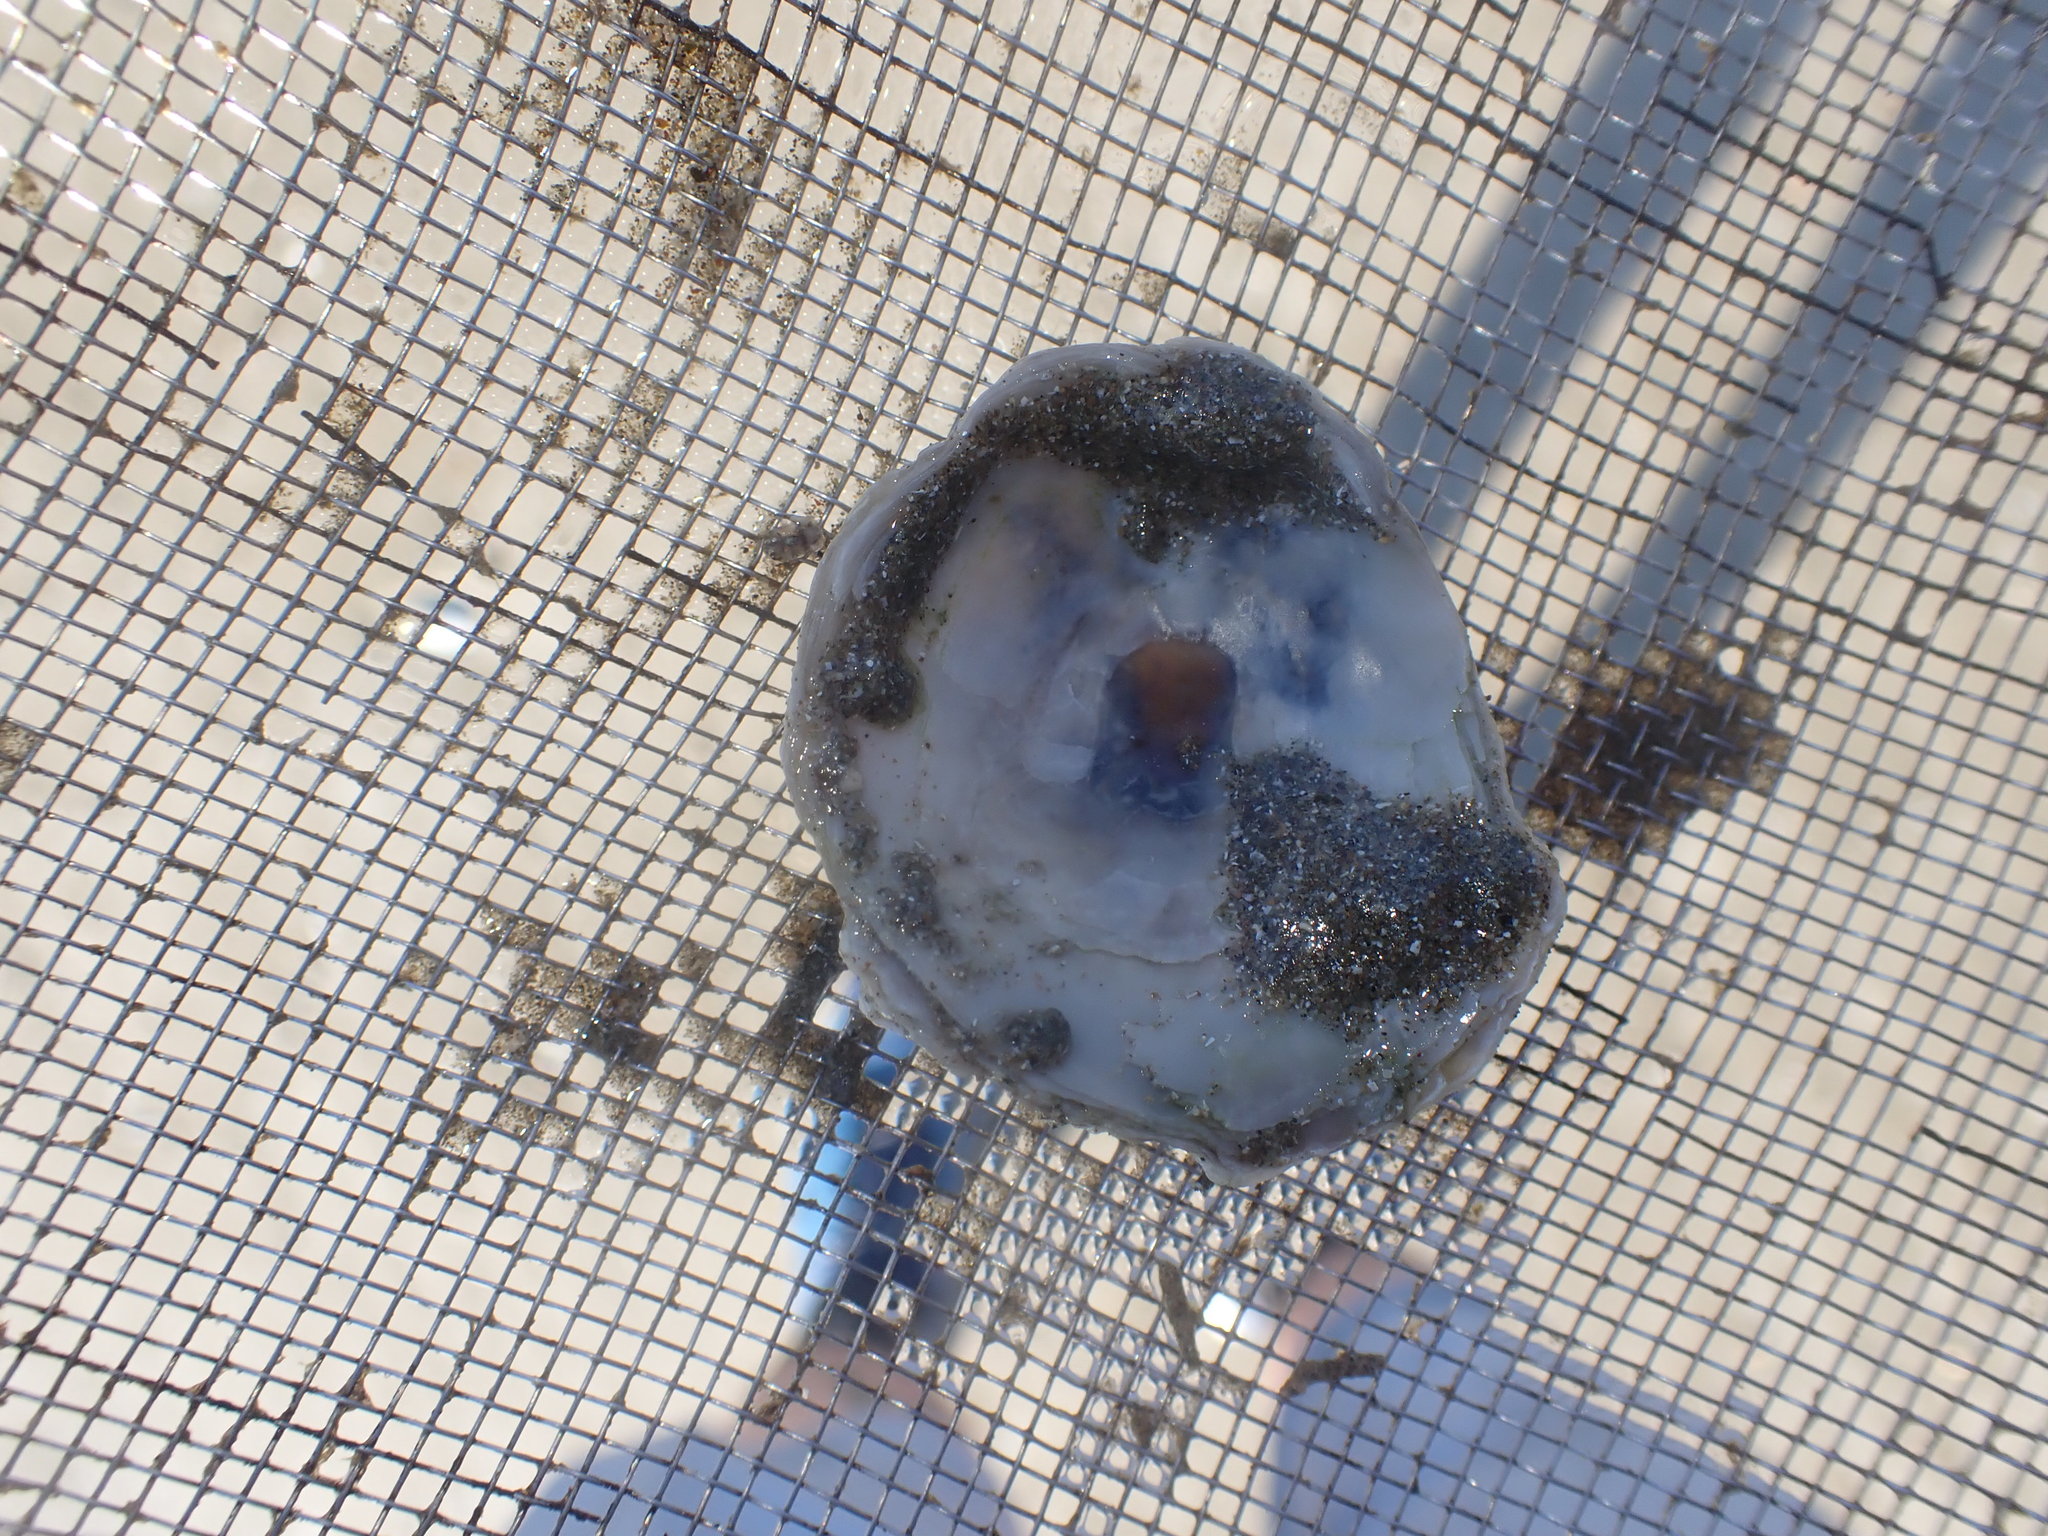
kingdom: Animalia
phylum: Mollusca
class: Bivalvia
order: Pectinida
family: Anomiidae
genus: Monia
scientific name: Monia zelandica
